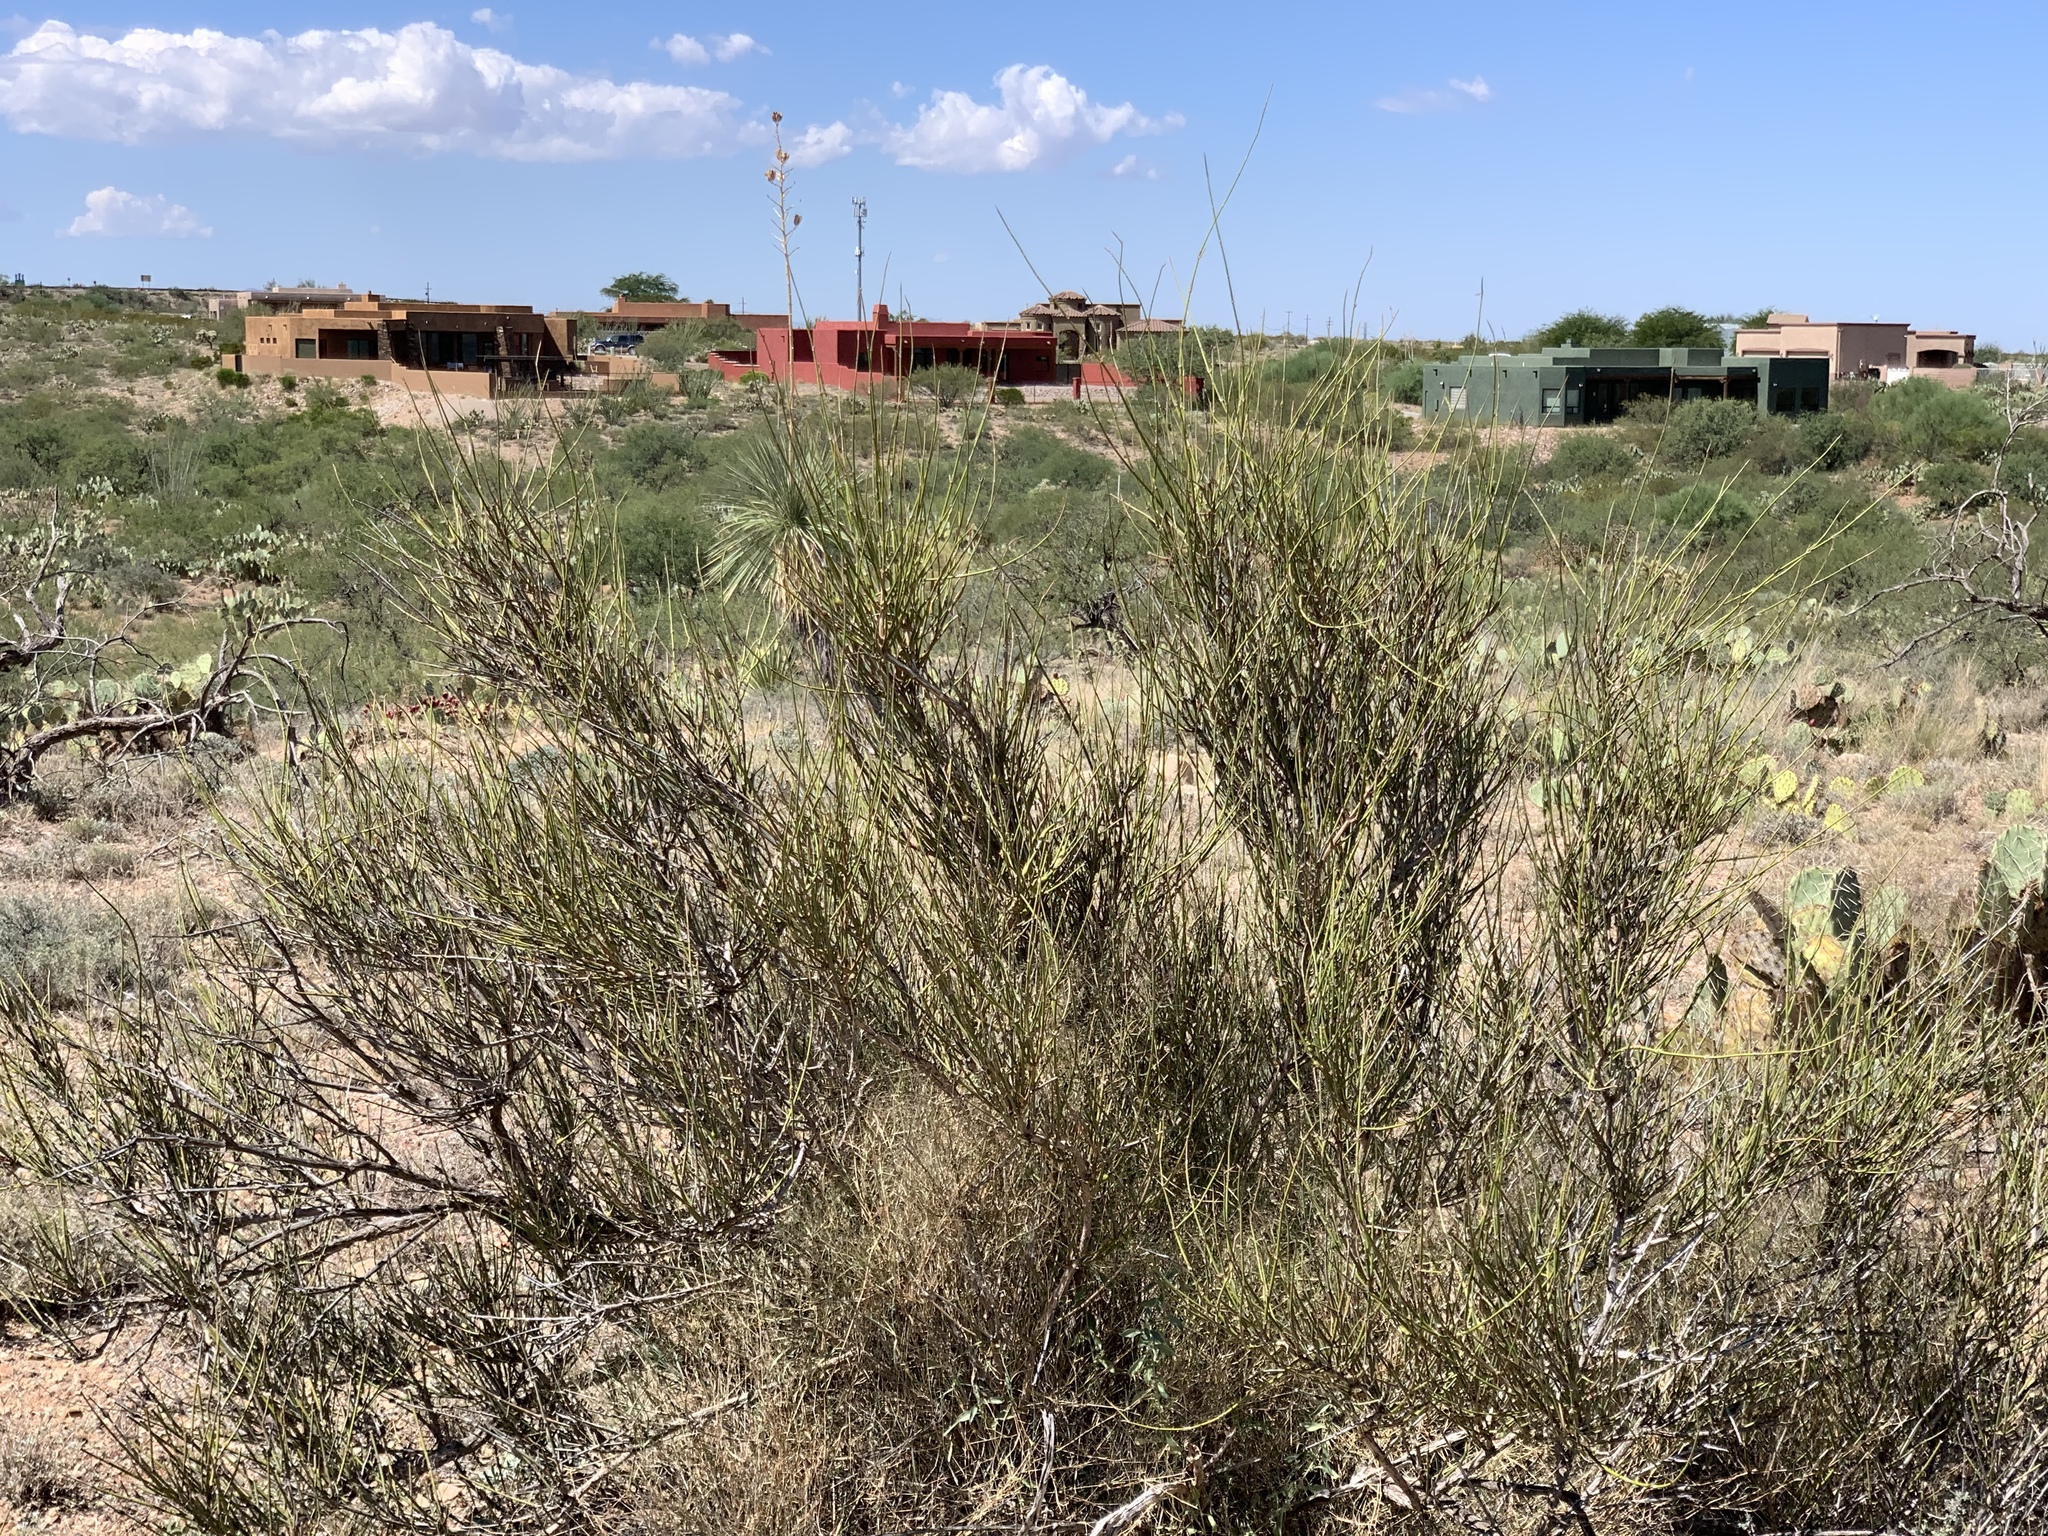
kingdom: Plantae
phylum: Tracheophyta
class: Gnetopsida
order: Ephedrales
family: Ephedraceae
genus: Ephedra
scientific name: Ephedra trifurca
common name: Mexican-tea
